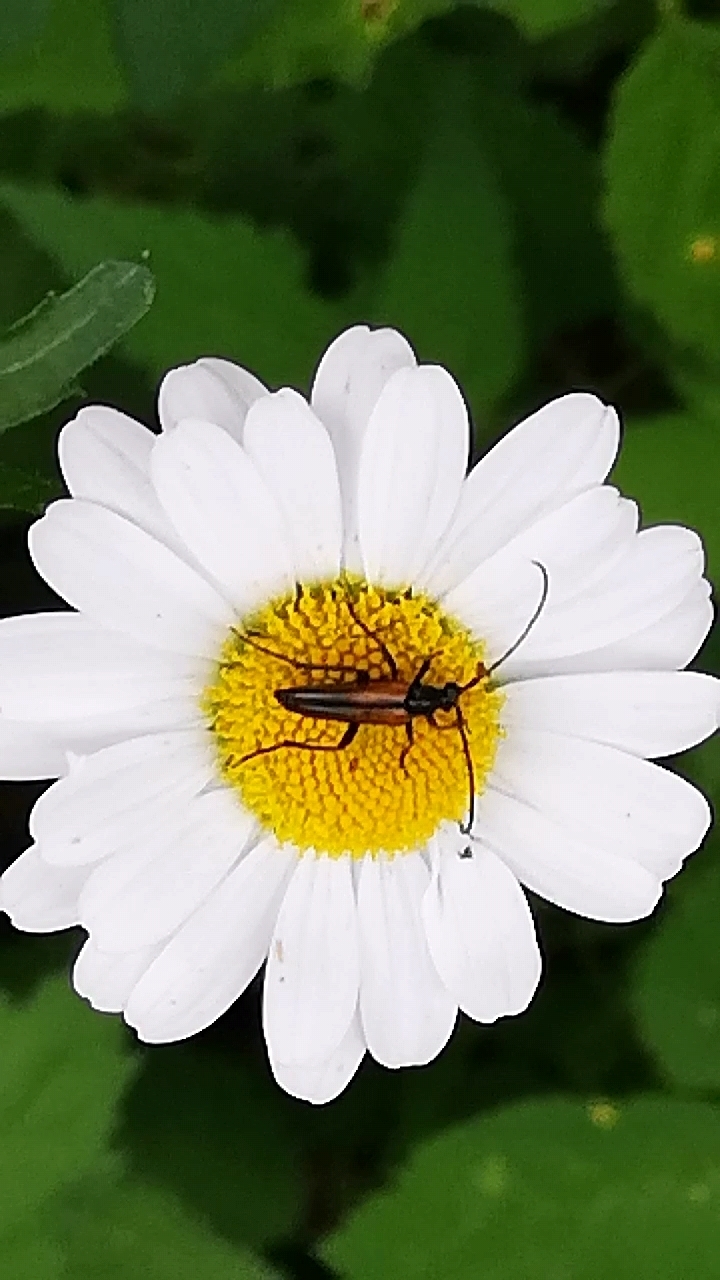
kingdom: Animalia
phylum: Arthropoda
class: Insecta
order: Coleoptera
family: Cerambycidae
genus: Stenurella
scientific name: Stenurella melanura
